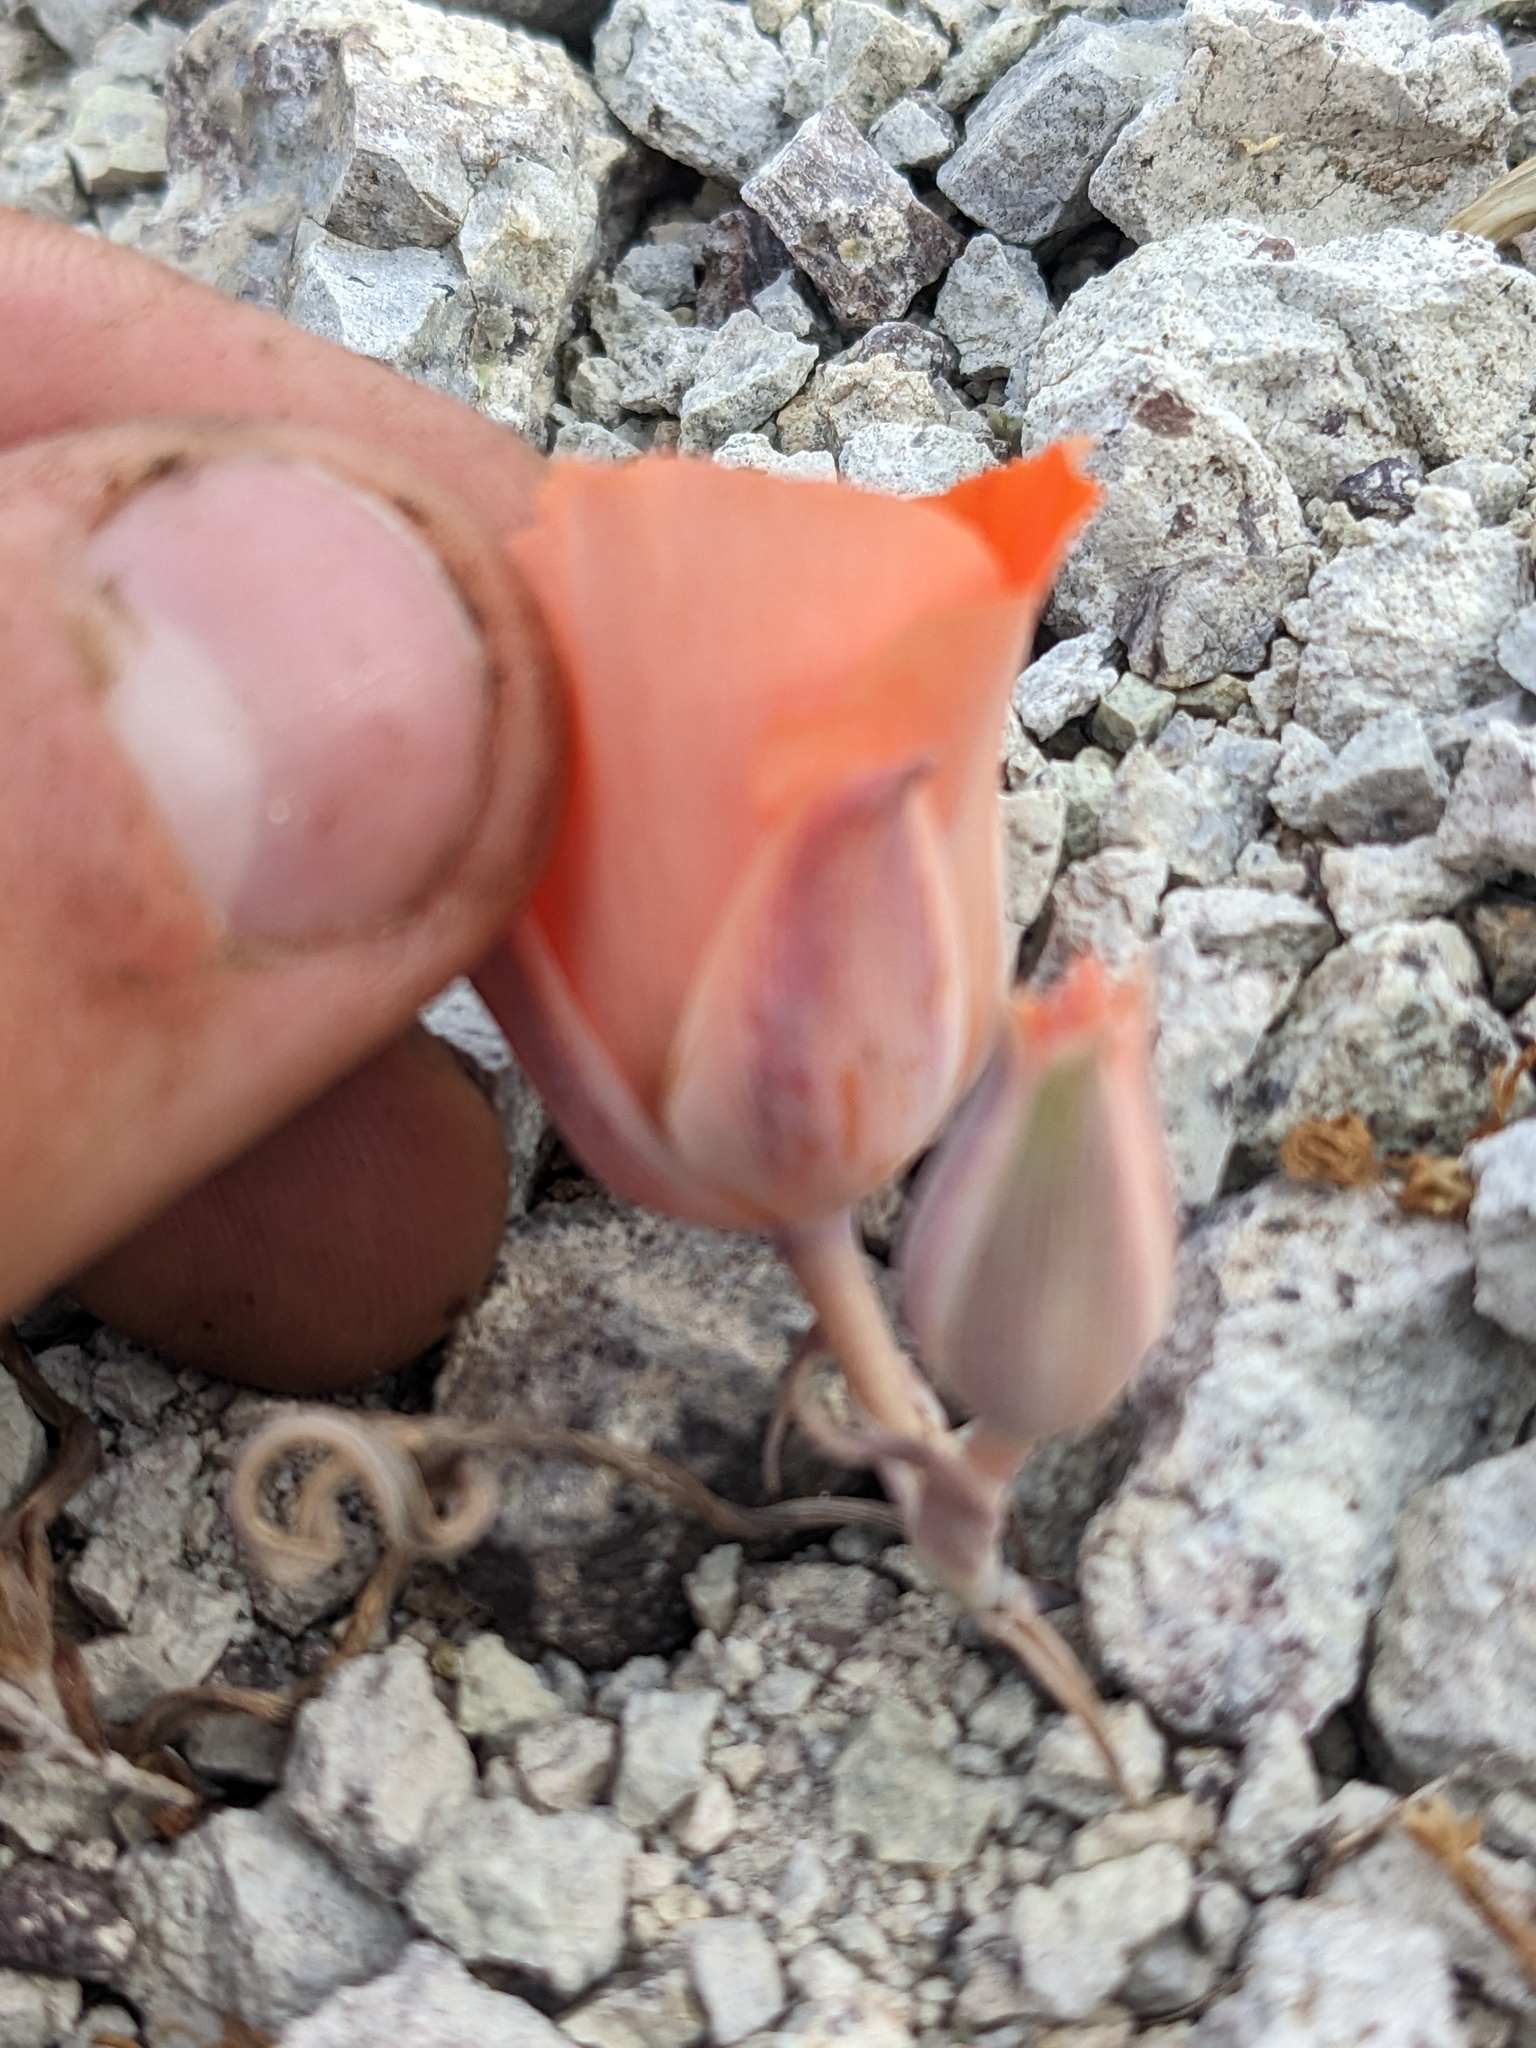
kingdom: Plantae
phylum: Tracheophyta
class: Liliopsida
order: Liliales
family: Liliaceae
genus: Calochortus
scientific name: Calochortus kennedyi
